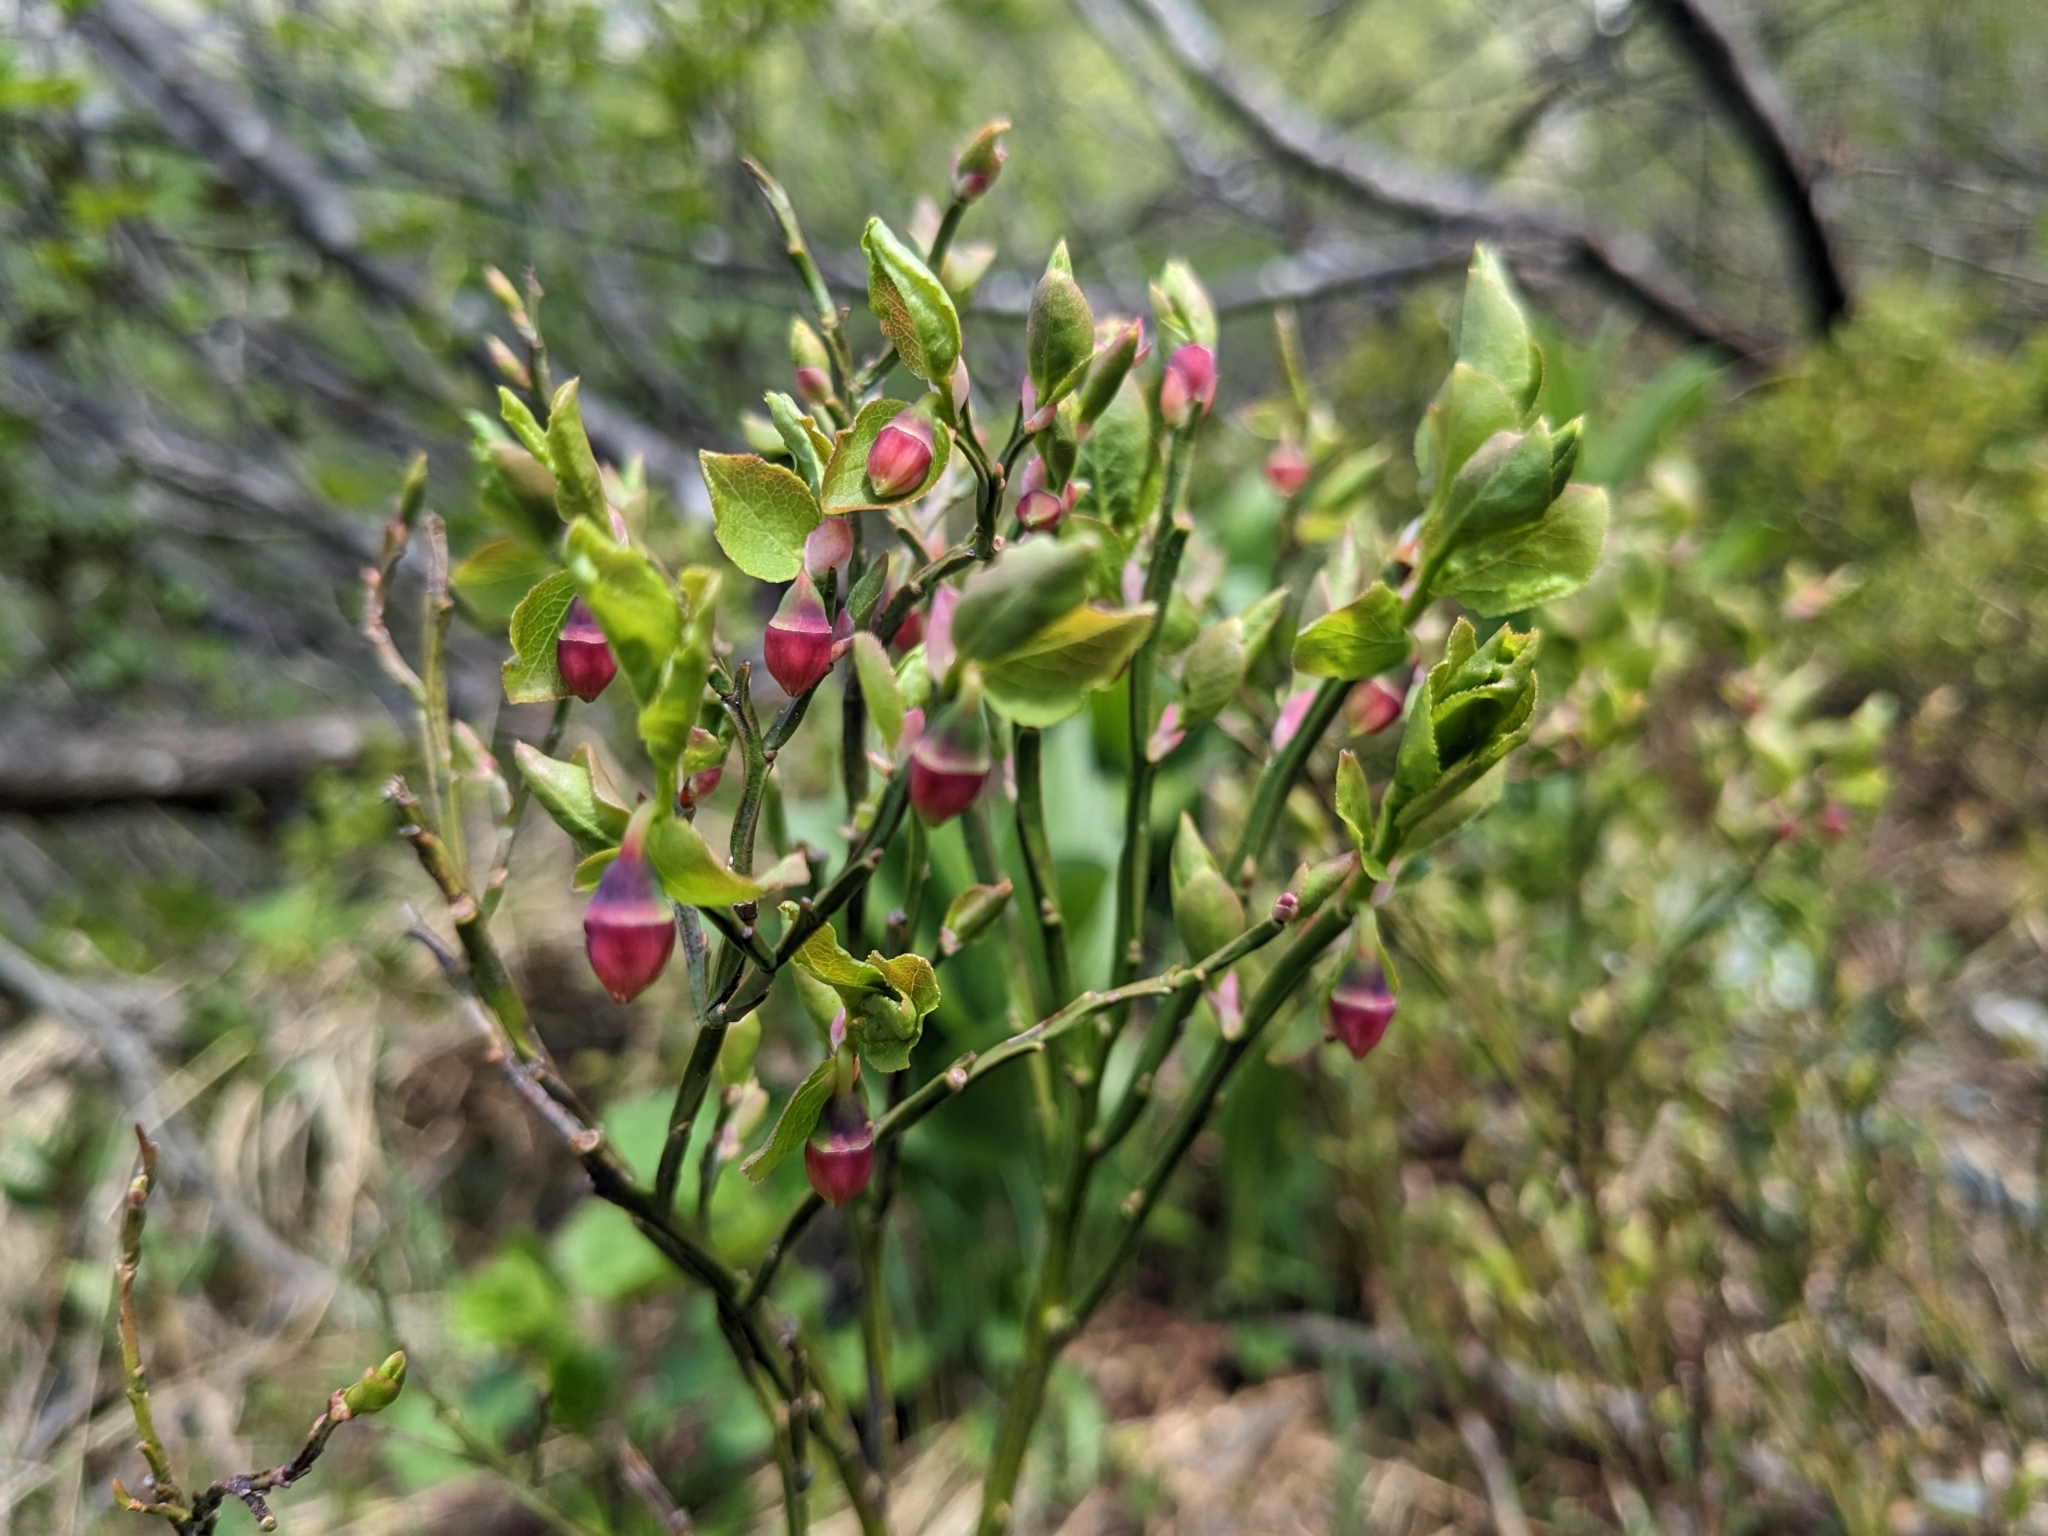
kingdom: Plantae
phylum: Tracheophyta
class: Magnoliopsida
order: Ericales
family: Ericaceae
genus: Vaccinium
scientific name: Vaccinium myrtillus
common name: Bilberry
